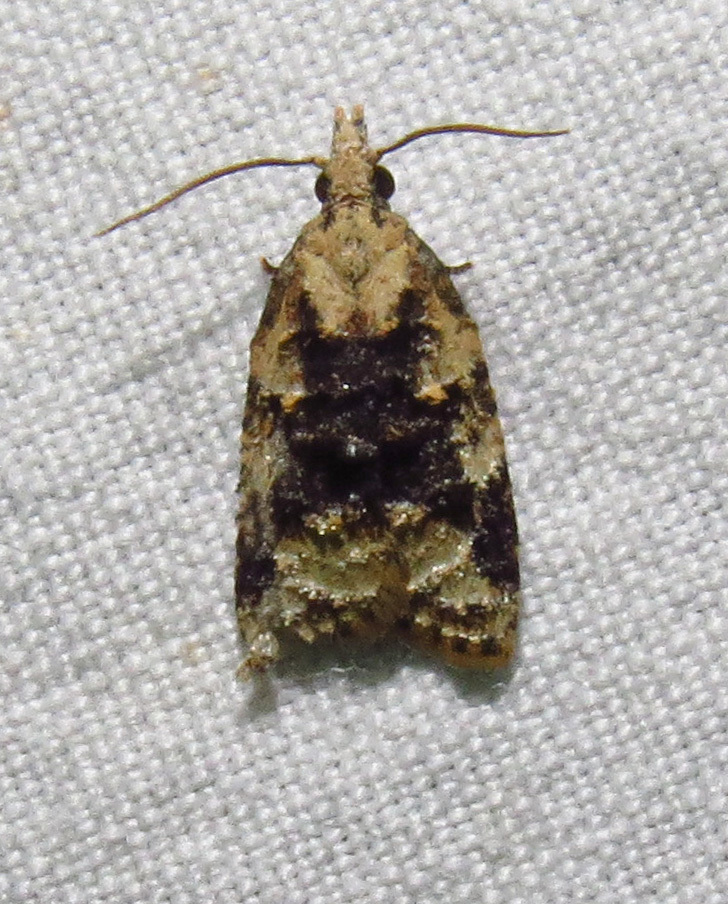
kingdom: Animalia
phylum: Arthropoda
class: Insecta
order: Lepidoptera
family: Tortricidae
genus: Platynota
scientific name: Platynota exasperatana
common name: Exasperating platynota moth
